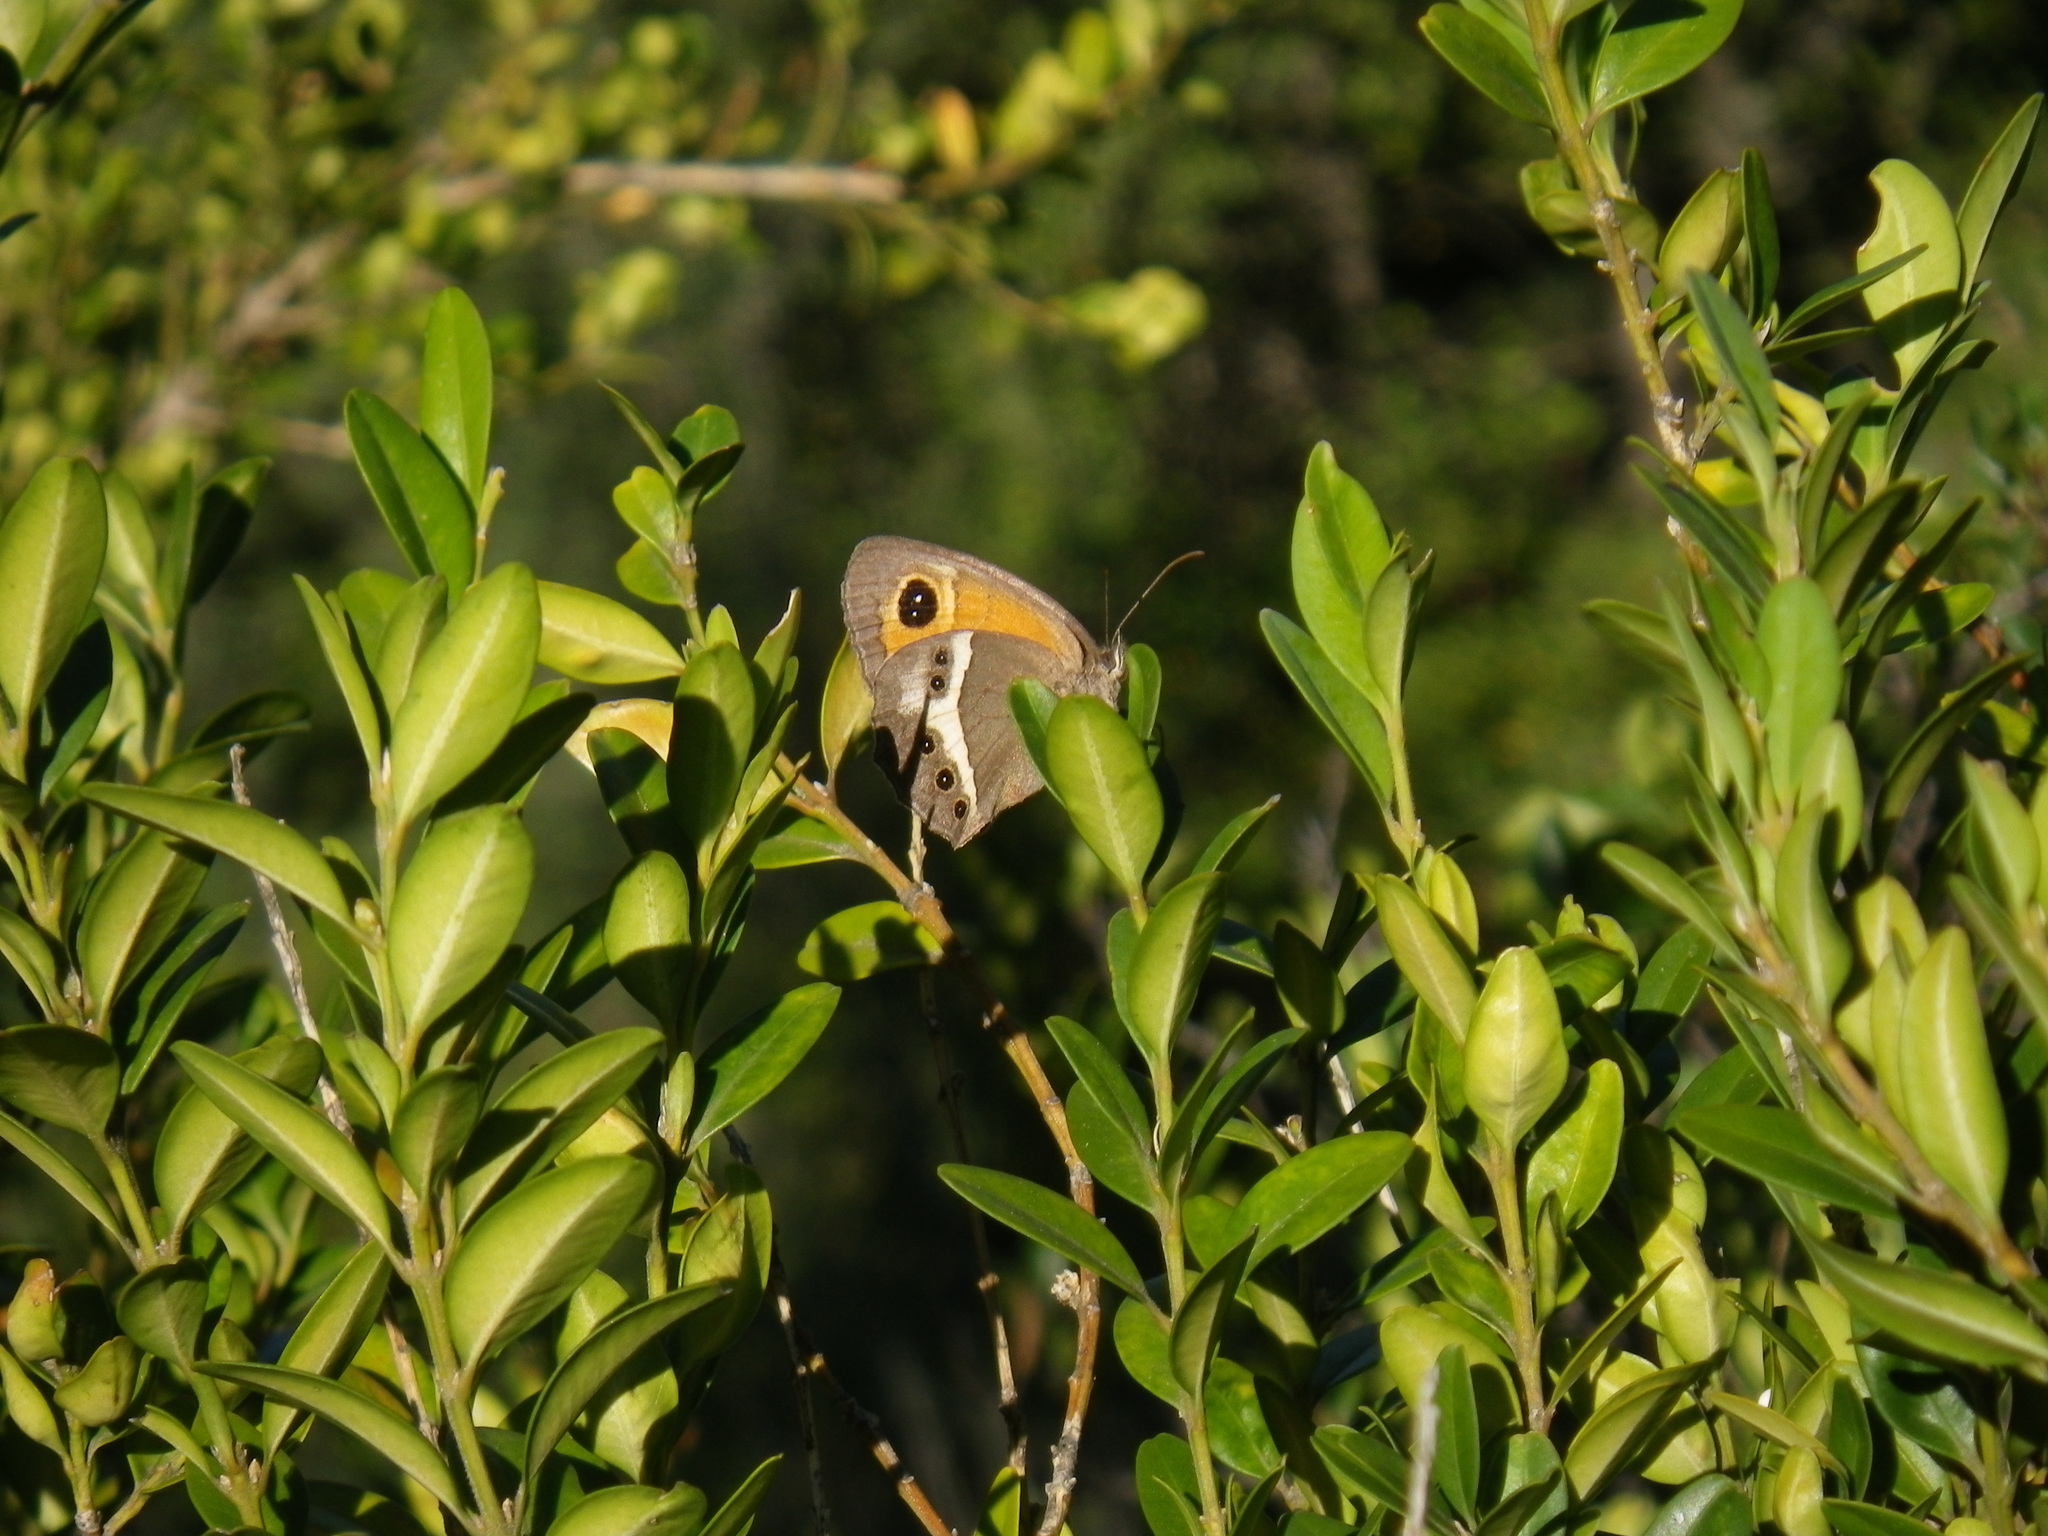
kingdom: Animalia
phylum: Arthropoda
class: Insecta
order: Lepidoptera
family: Nymphalidae
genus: Pyronia
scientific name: Pyronia bathseba
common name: Spanish gatekeeper
